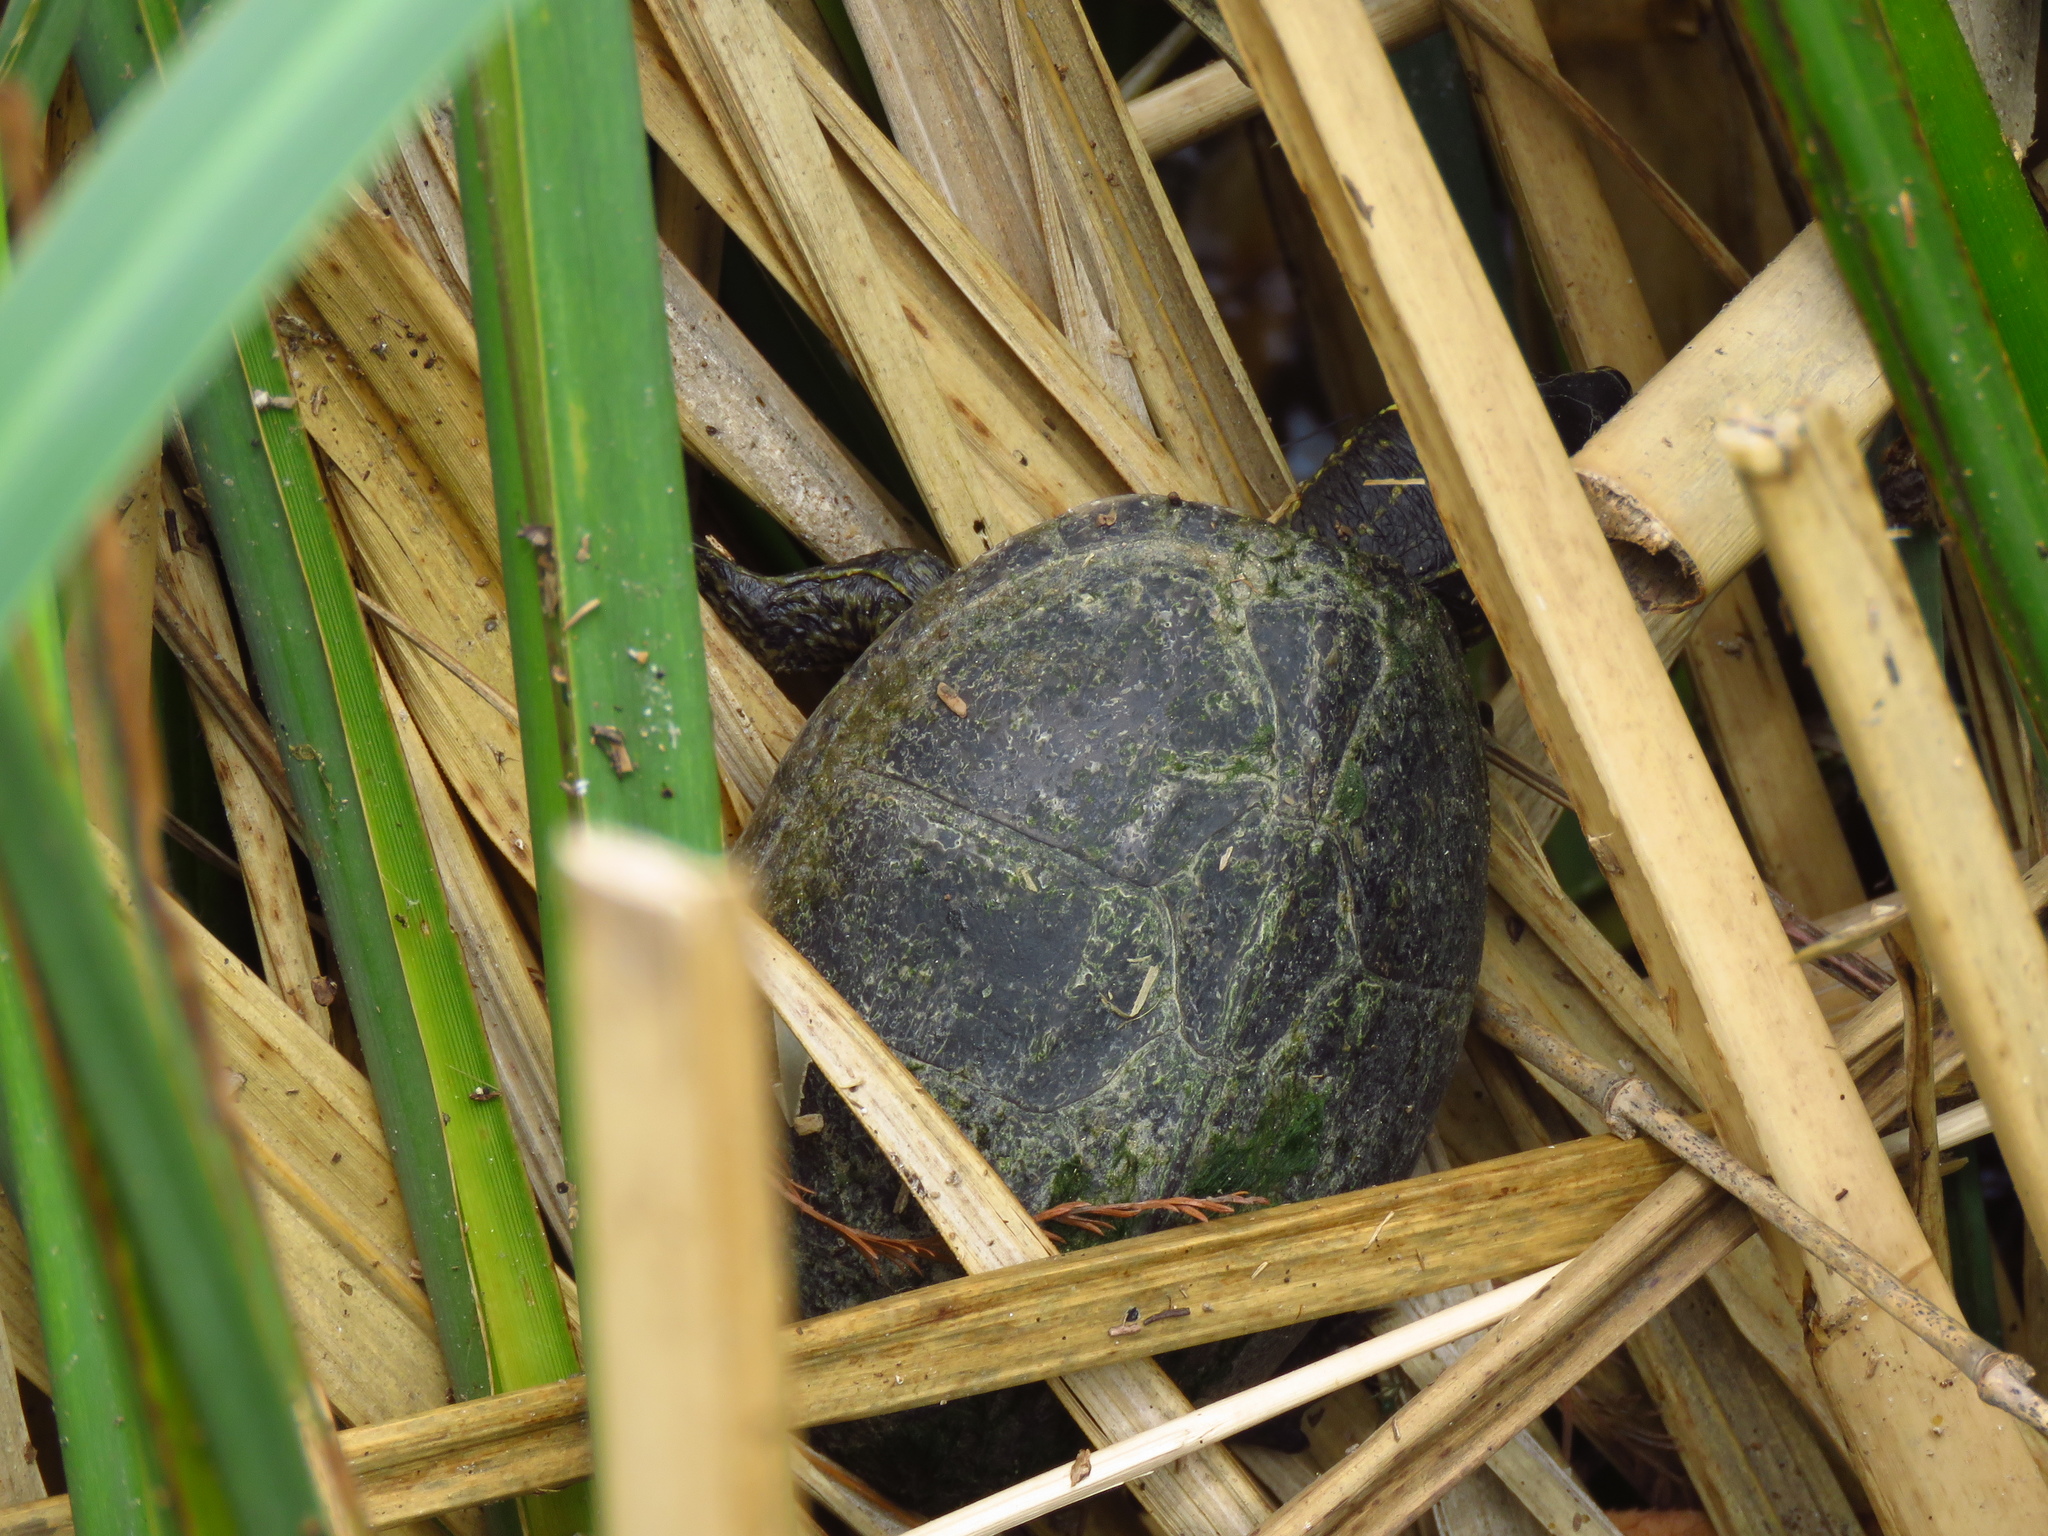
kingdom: Animalia
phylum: Chordata
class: Testudines
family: Kinosternidae
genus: Sternotherus
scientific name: Sternotherus odoratus
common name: Common musk turtle
